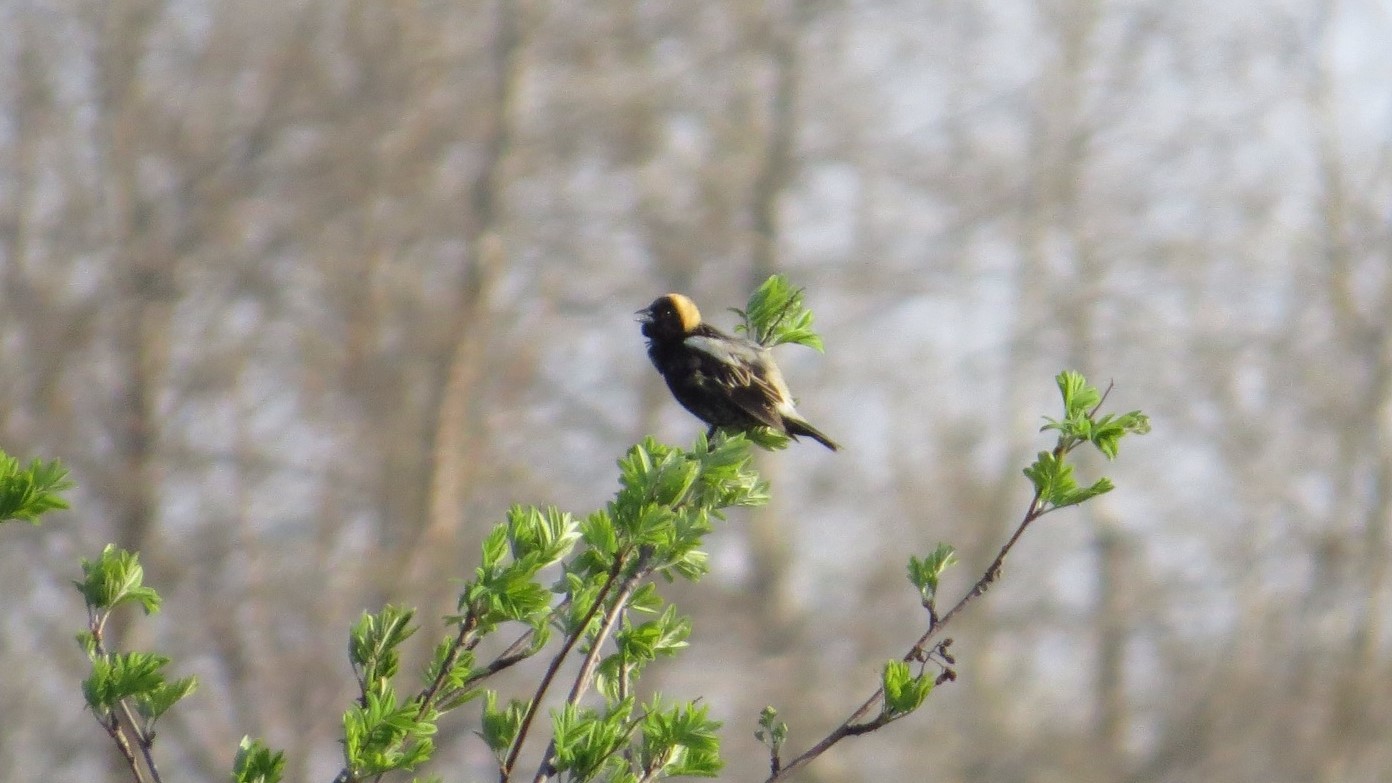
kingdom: Animalia
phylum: Chordata
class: Aves
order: Passeriformes
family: Icteridae
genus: Dolichonyx
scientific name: Dolichonyx oryzivorus
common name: Bobolink
